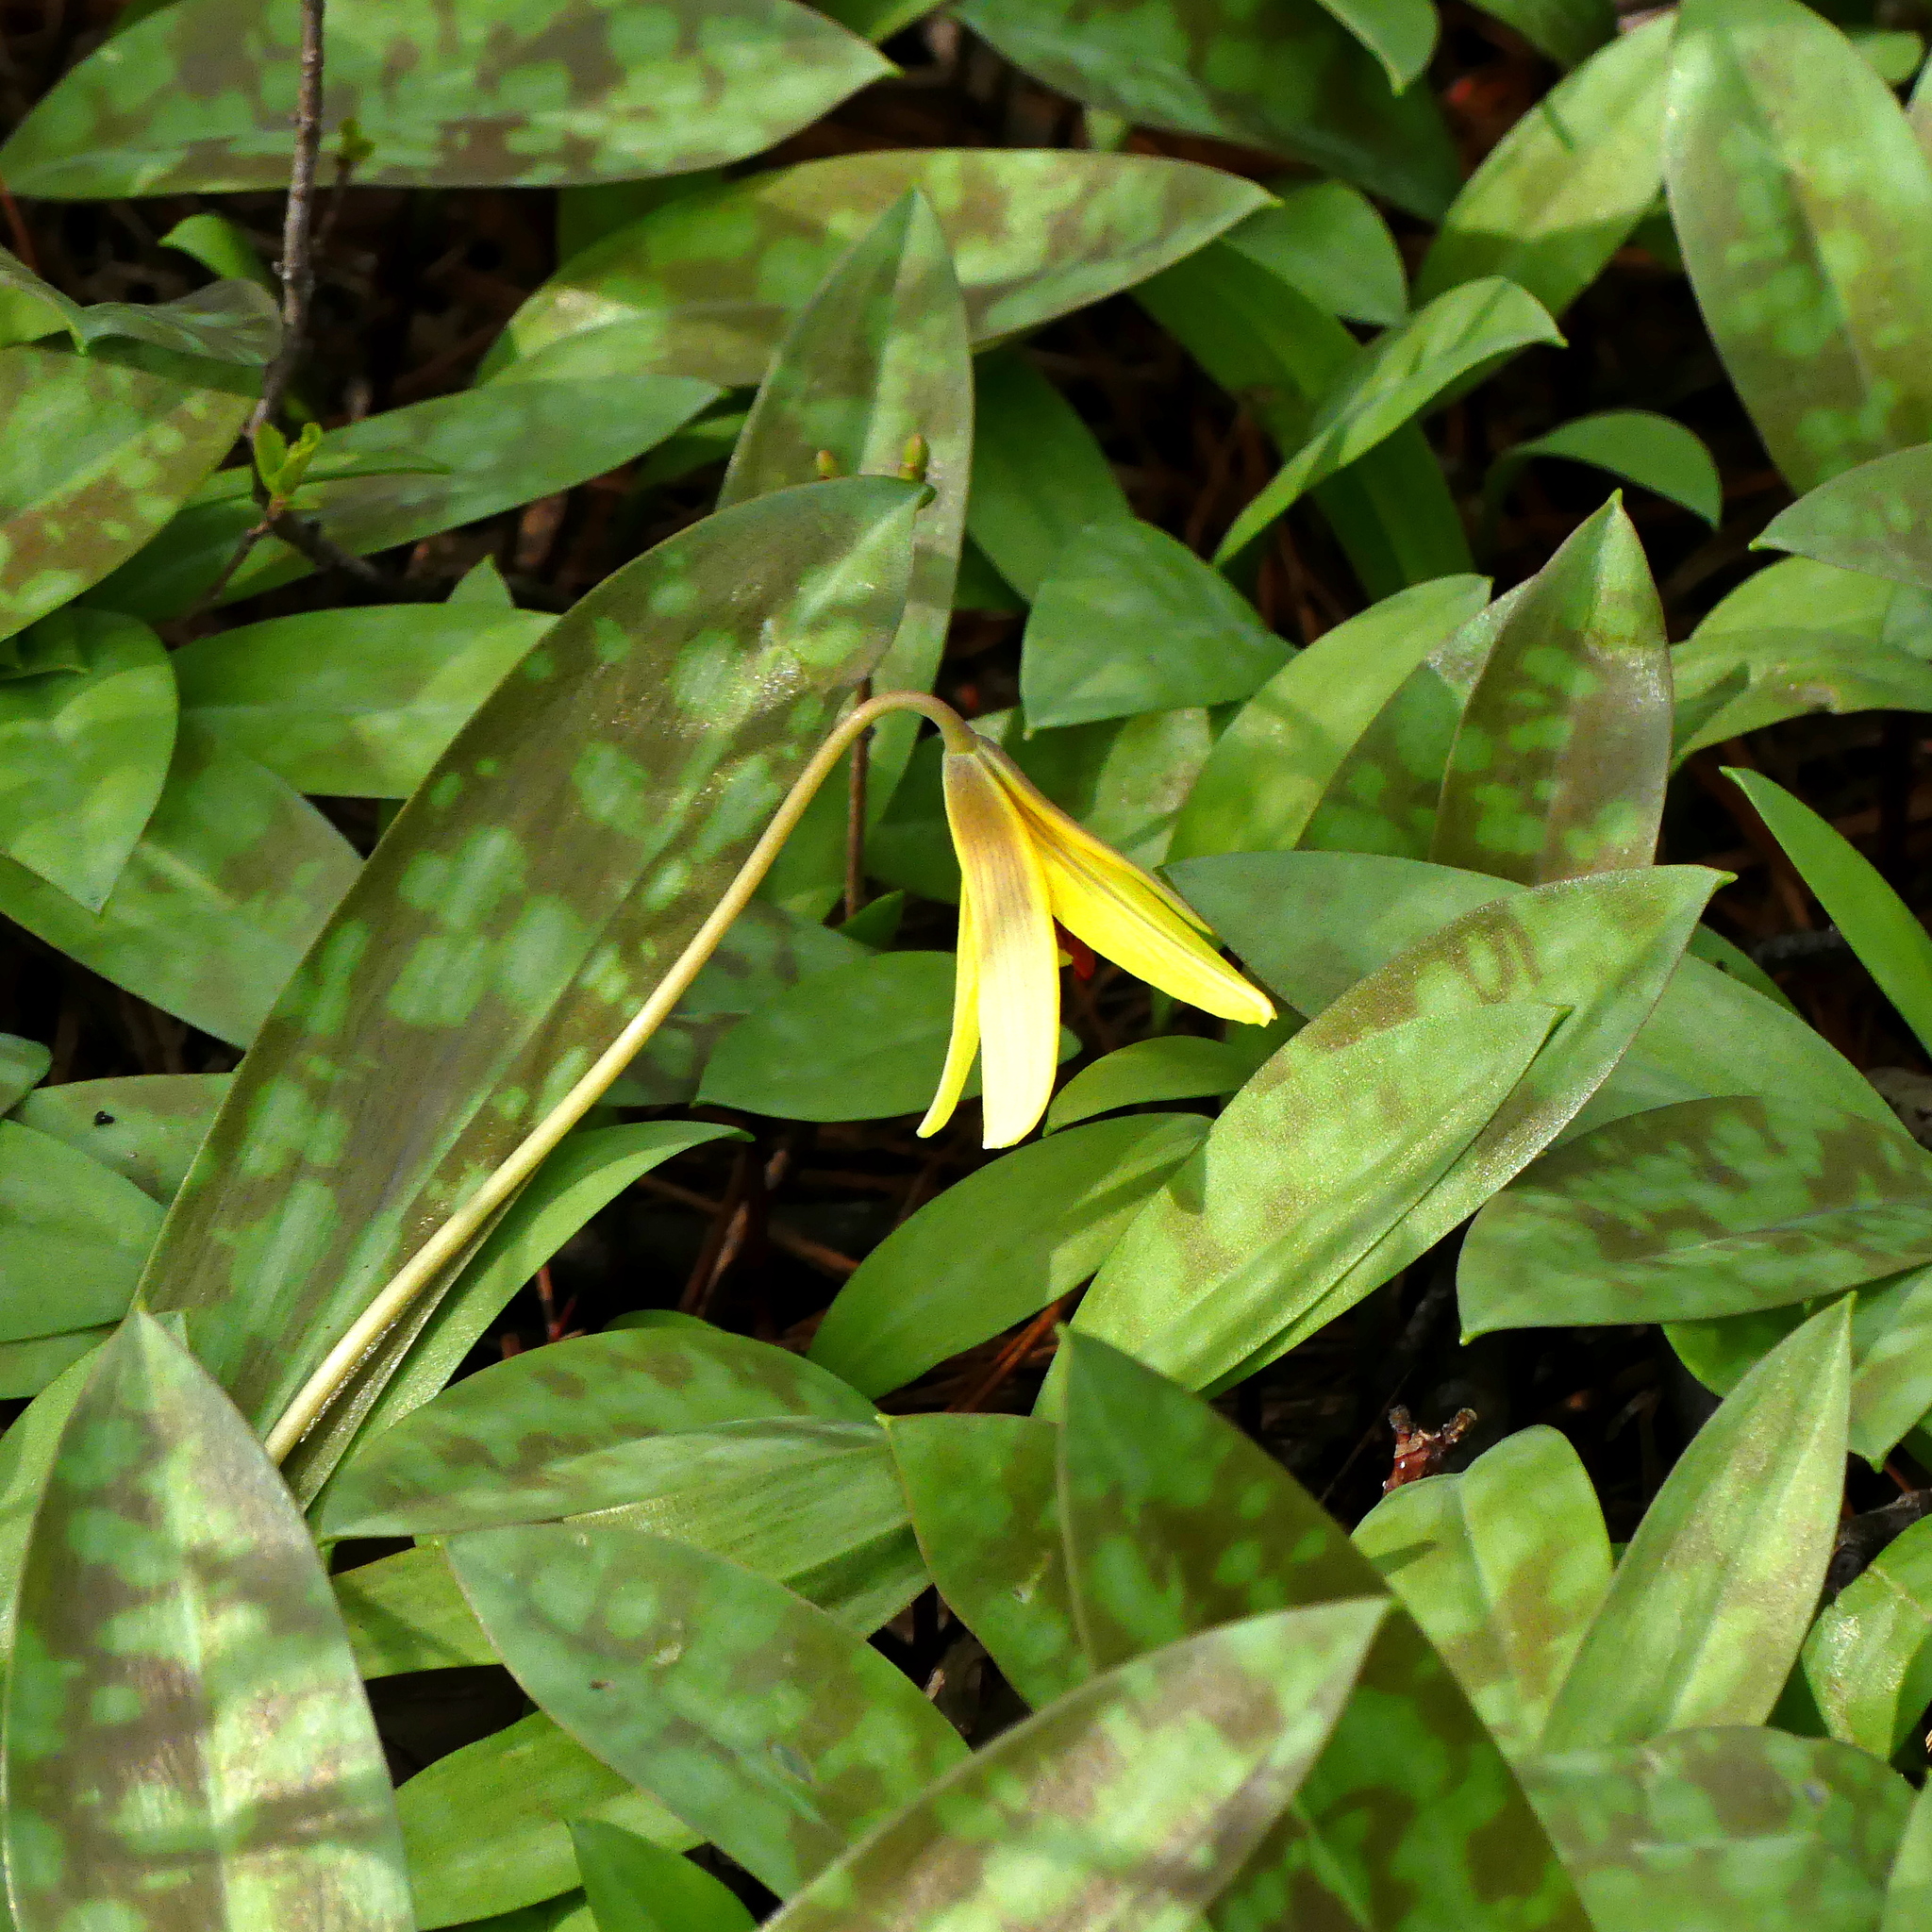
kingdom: Plantae
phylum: Tracheophyta
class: Liliopsida
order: Liliales
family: Liliaceae
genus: Erythronium
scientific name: Erythronium americanum
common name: Yellow adder's-tongue
